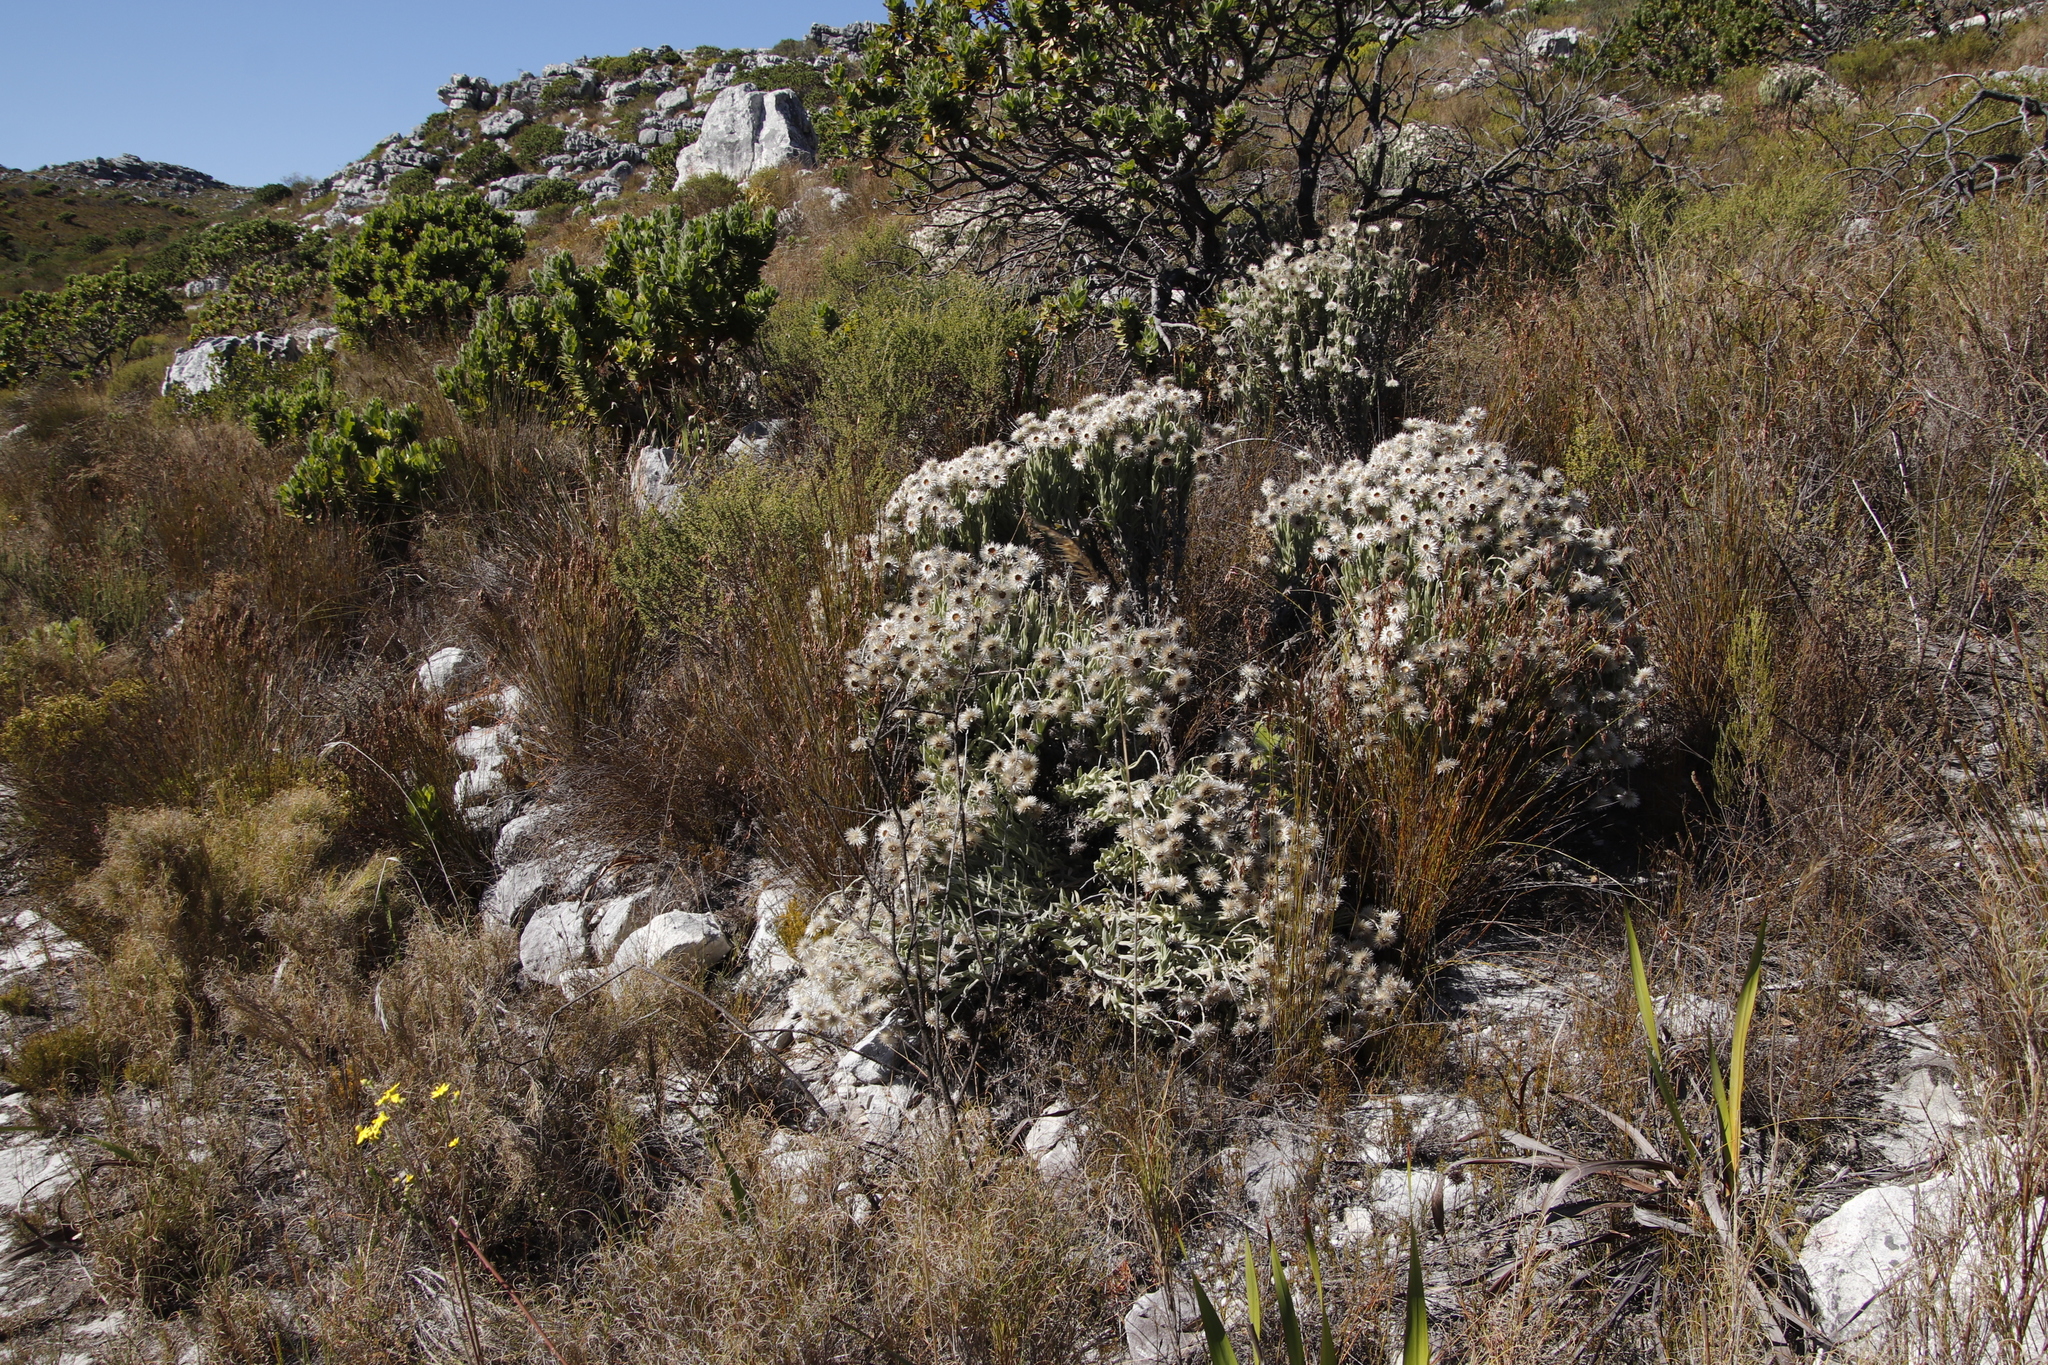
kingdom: Plantae
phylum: Tracheophyta
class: Magnoliopsida
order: Asterales
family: Asteraceae
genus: Syncarpha
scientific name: Syncarpha vestita
